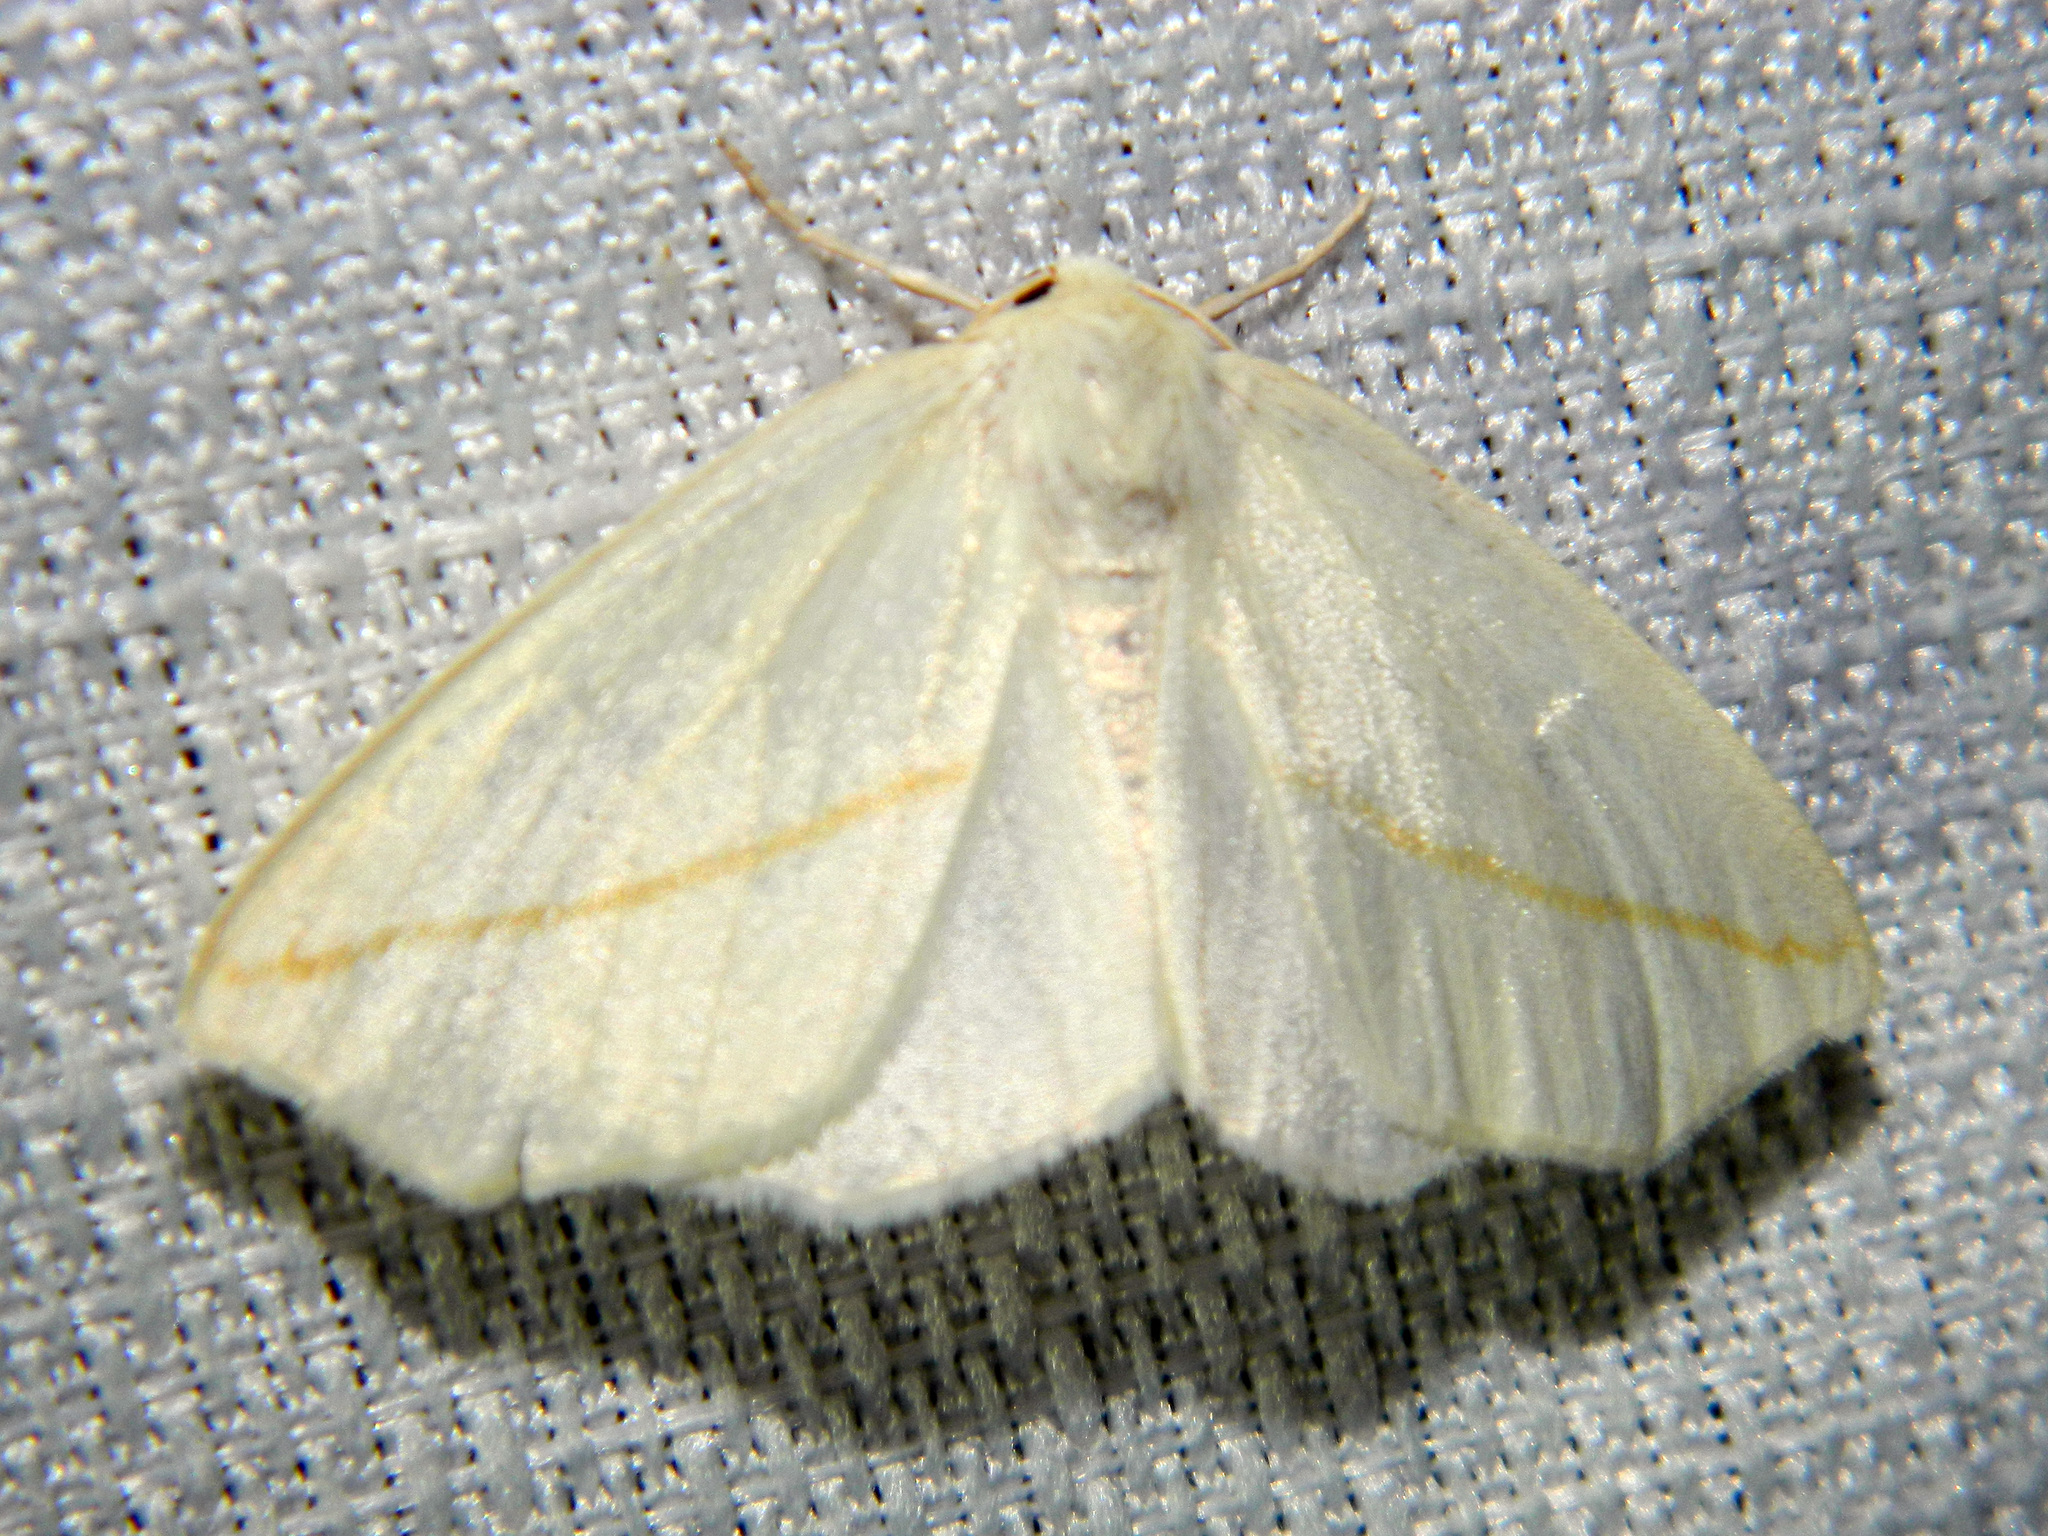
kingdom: Animalia
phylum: Arthropoda
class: Insecta
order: Lepidoptera
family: Geometridae
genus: Tetracis
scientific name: Tetracis cachexiata
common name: White slant-line
